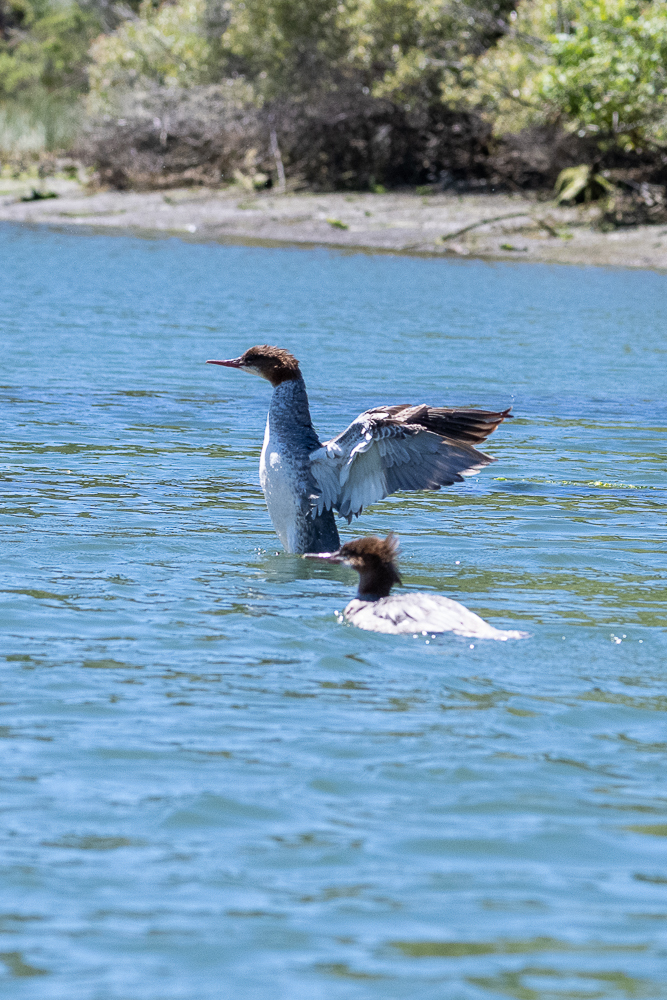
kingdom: Animalia
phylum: Chordata
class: Aves
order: Anseriformes
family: Anatidae
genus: Mergus
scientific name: Mergus merganser
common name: Common merganser
